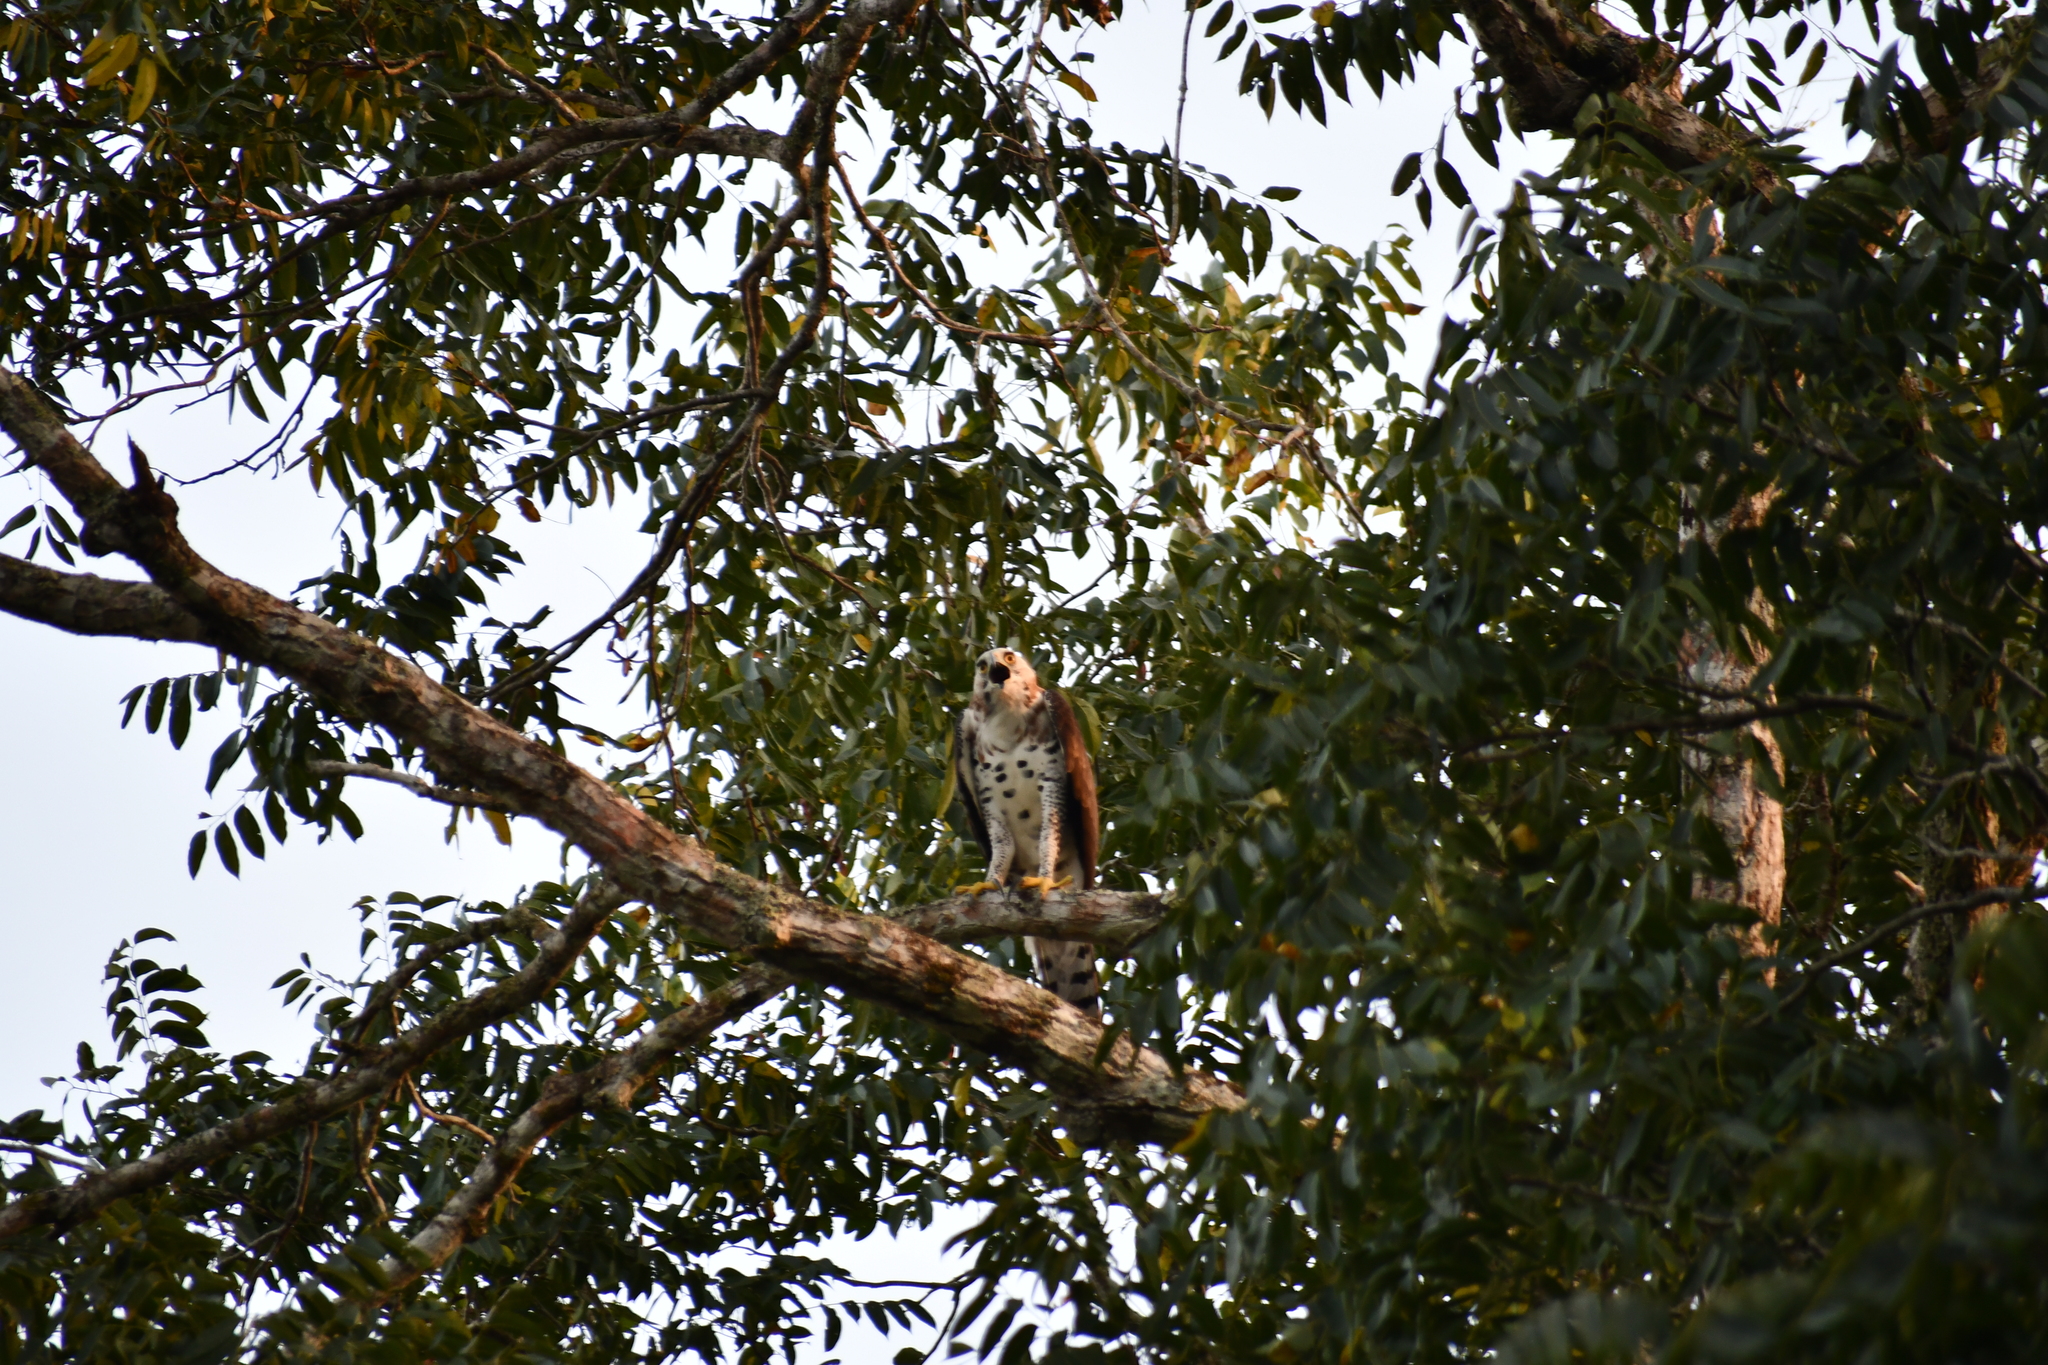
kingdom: Animalia
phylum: Chordata
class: Aves
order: Accipitriformes
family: Accipitridae
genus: Spizaetus
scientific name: Spizaetus ornatus
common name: Ornate hawk-eagle
